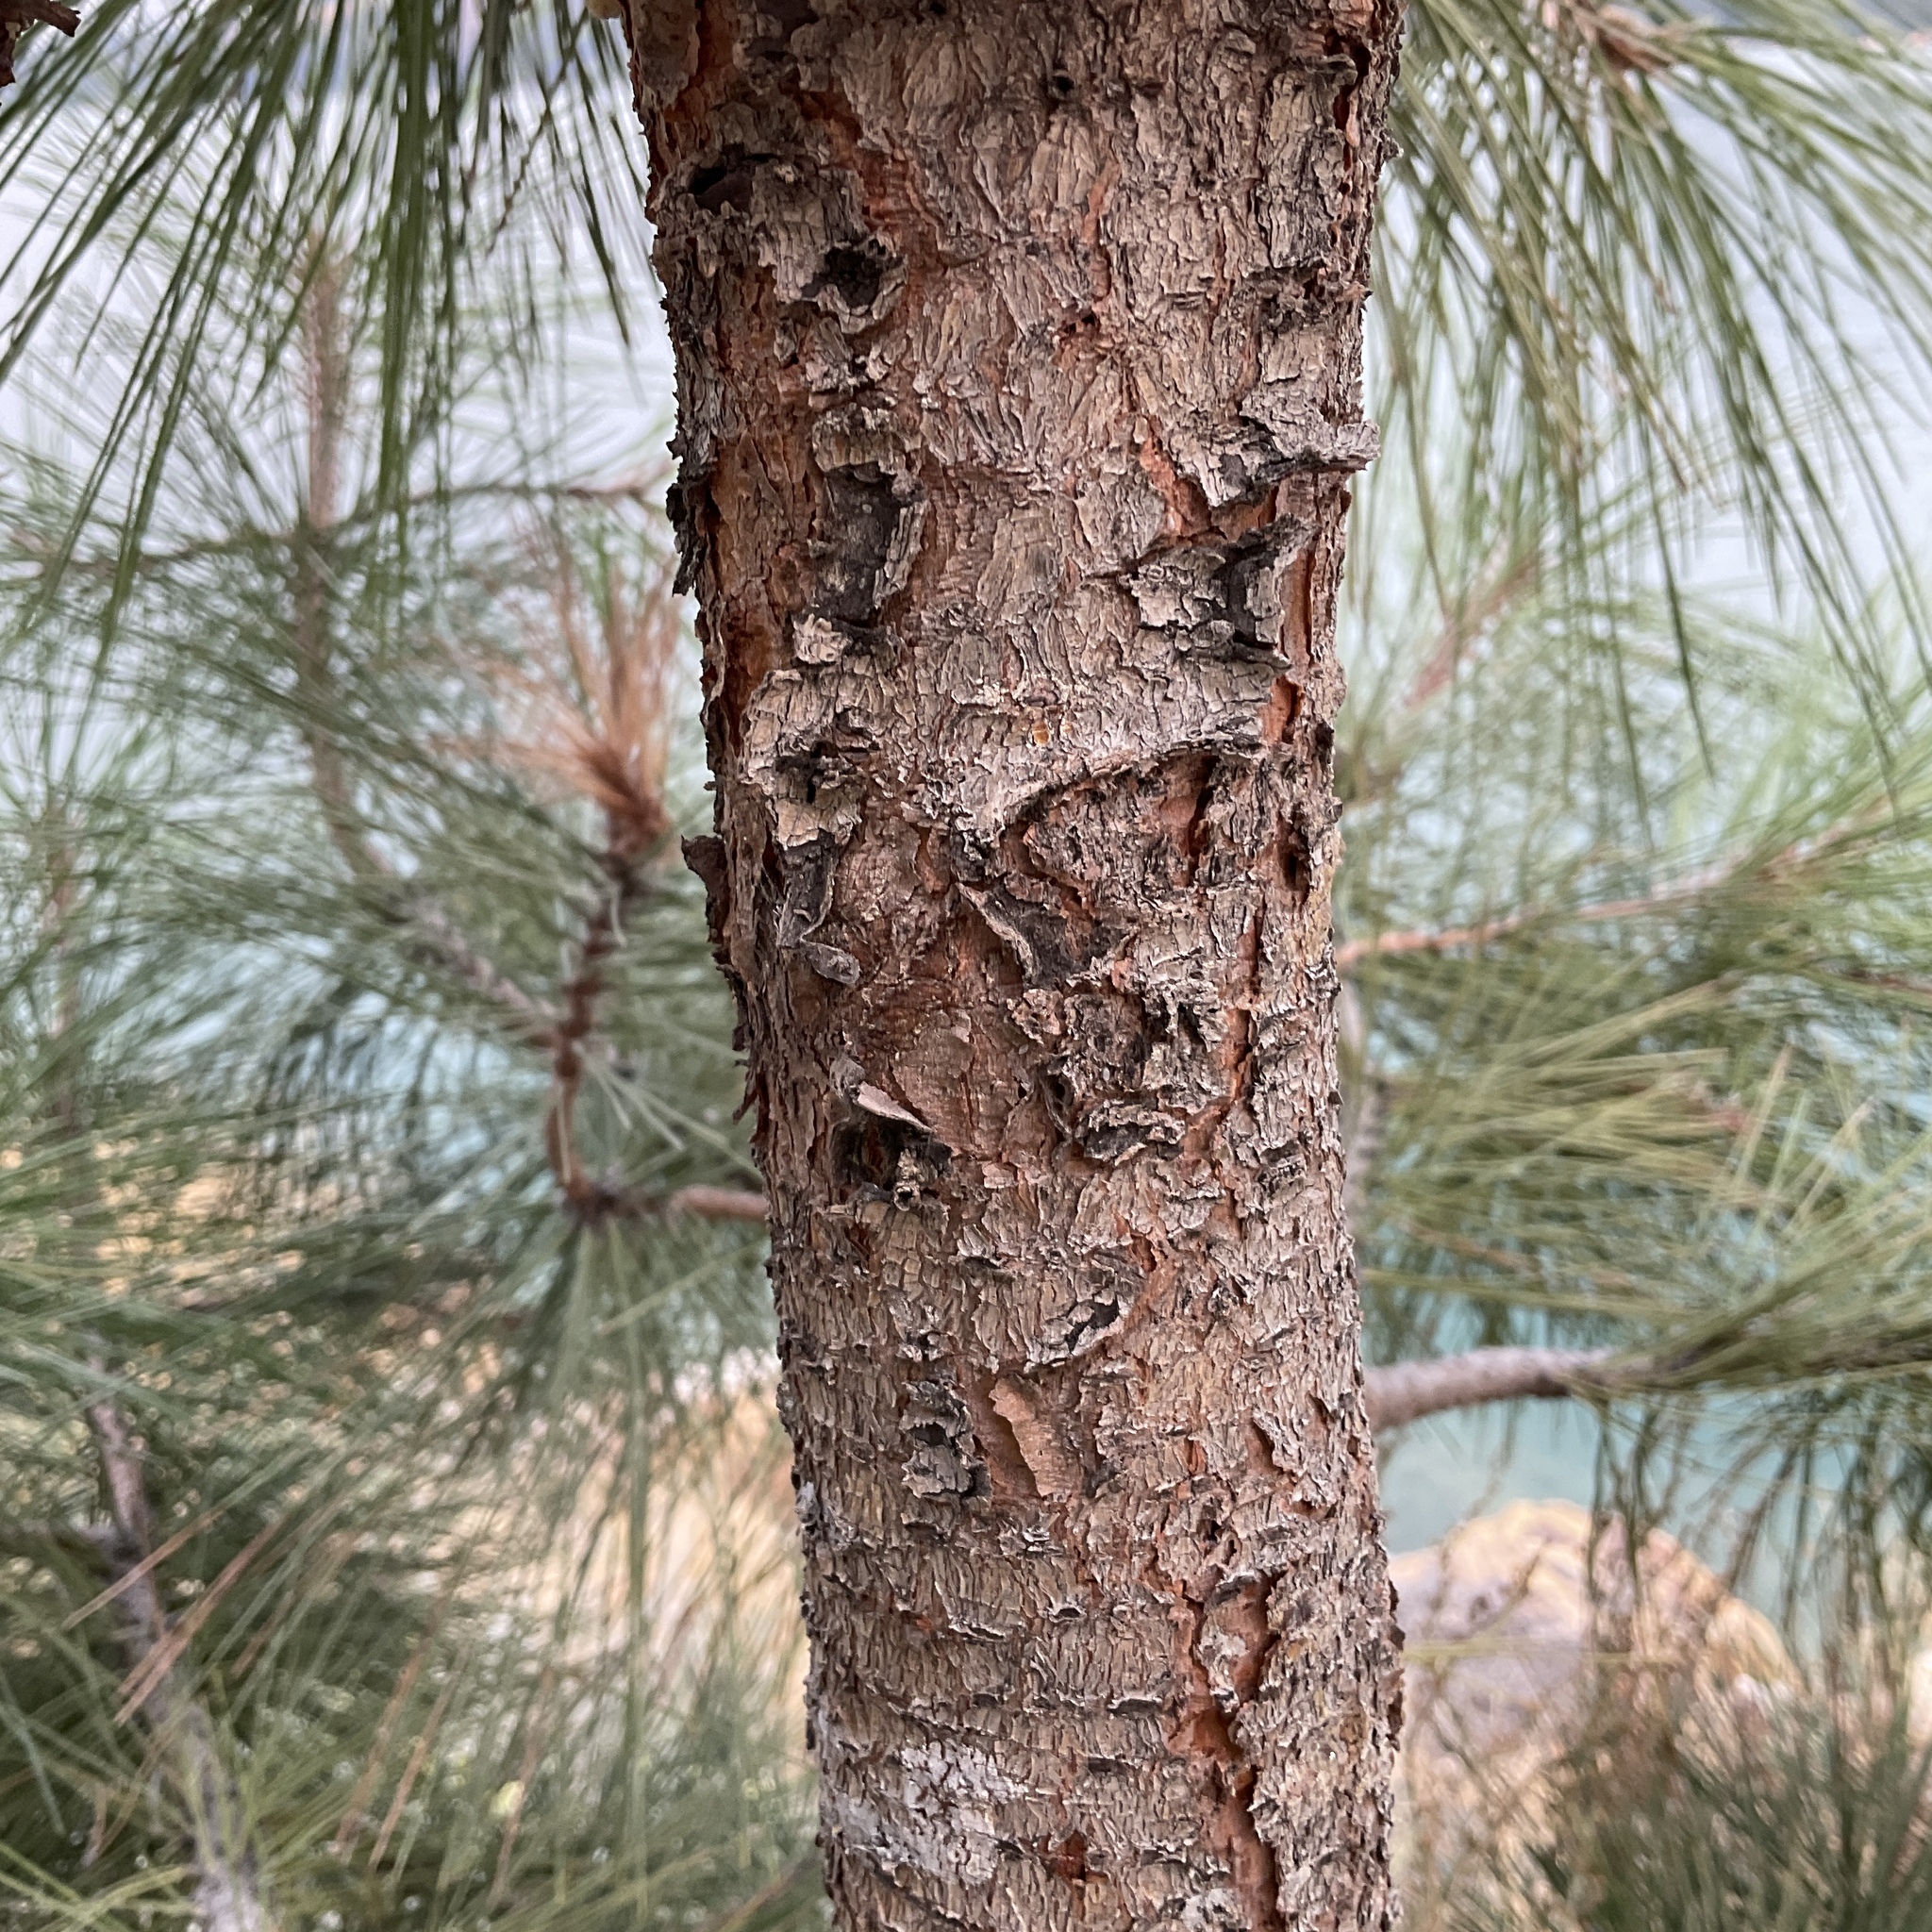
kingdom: Plantae
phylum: Tracheophyta
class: Pinopsida
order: Pinales
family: Pinaceae
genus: Pinus
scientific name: Pinus ponderosa
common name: Western yellow-pine
